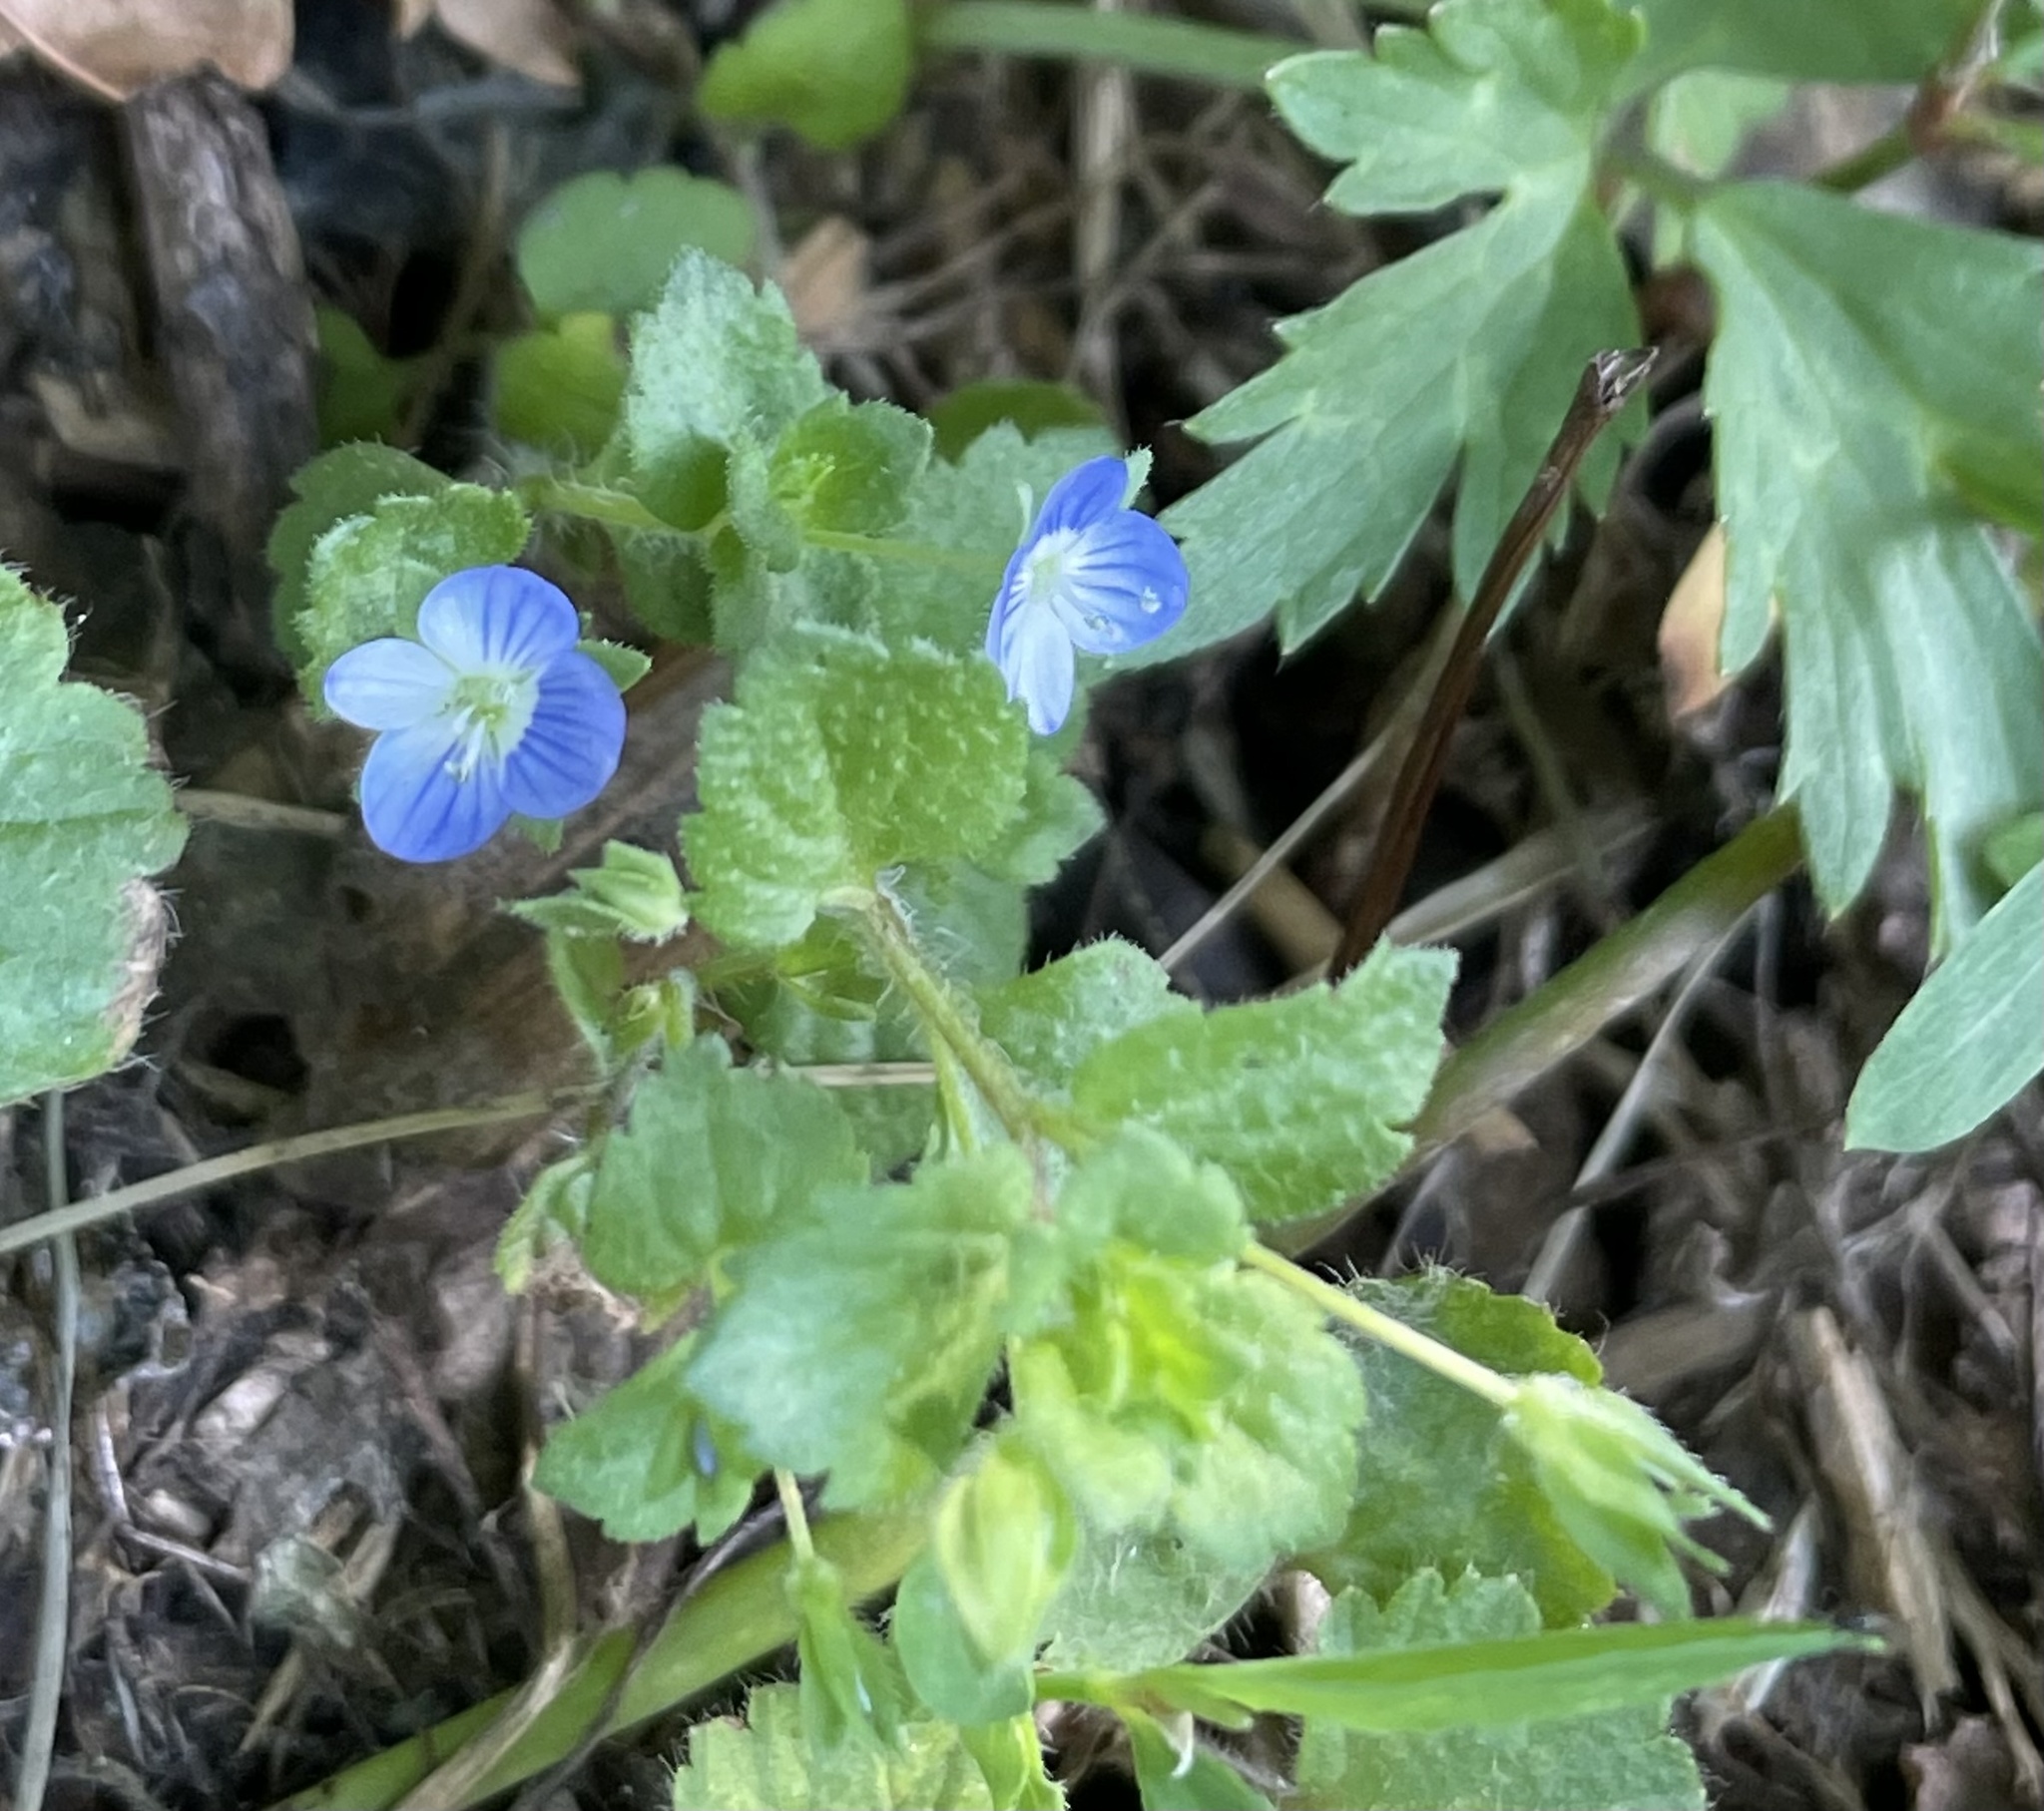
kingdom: Plantae
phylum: Tracheophyta
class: Magnoliopsida
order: Lamiales
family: Plantaginaceae
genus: Veronica
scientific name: Veronica persica
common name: Common field-speedwell
